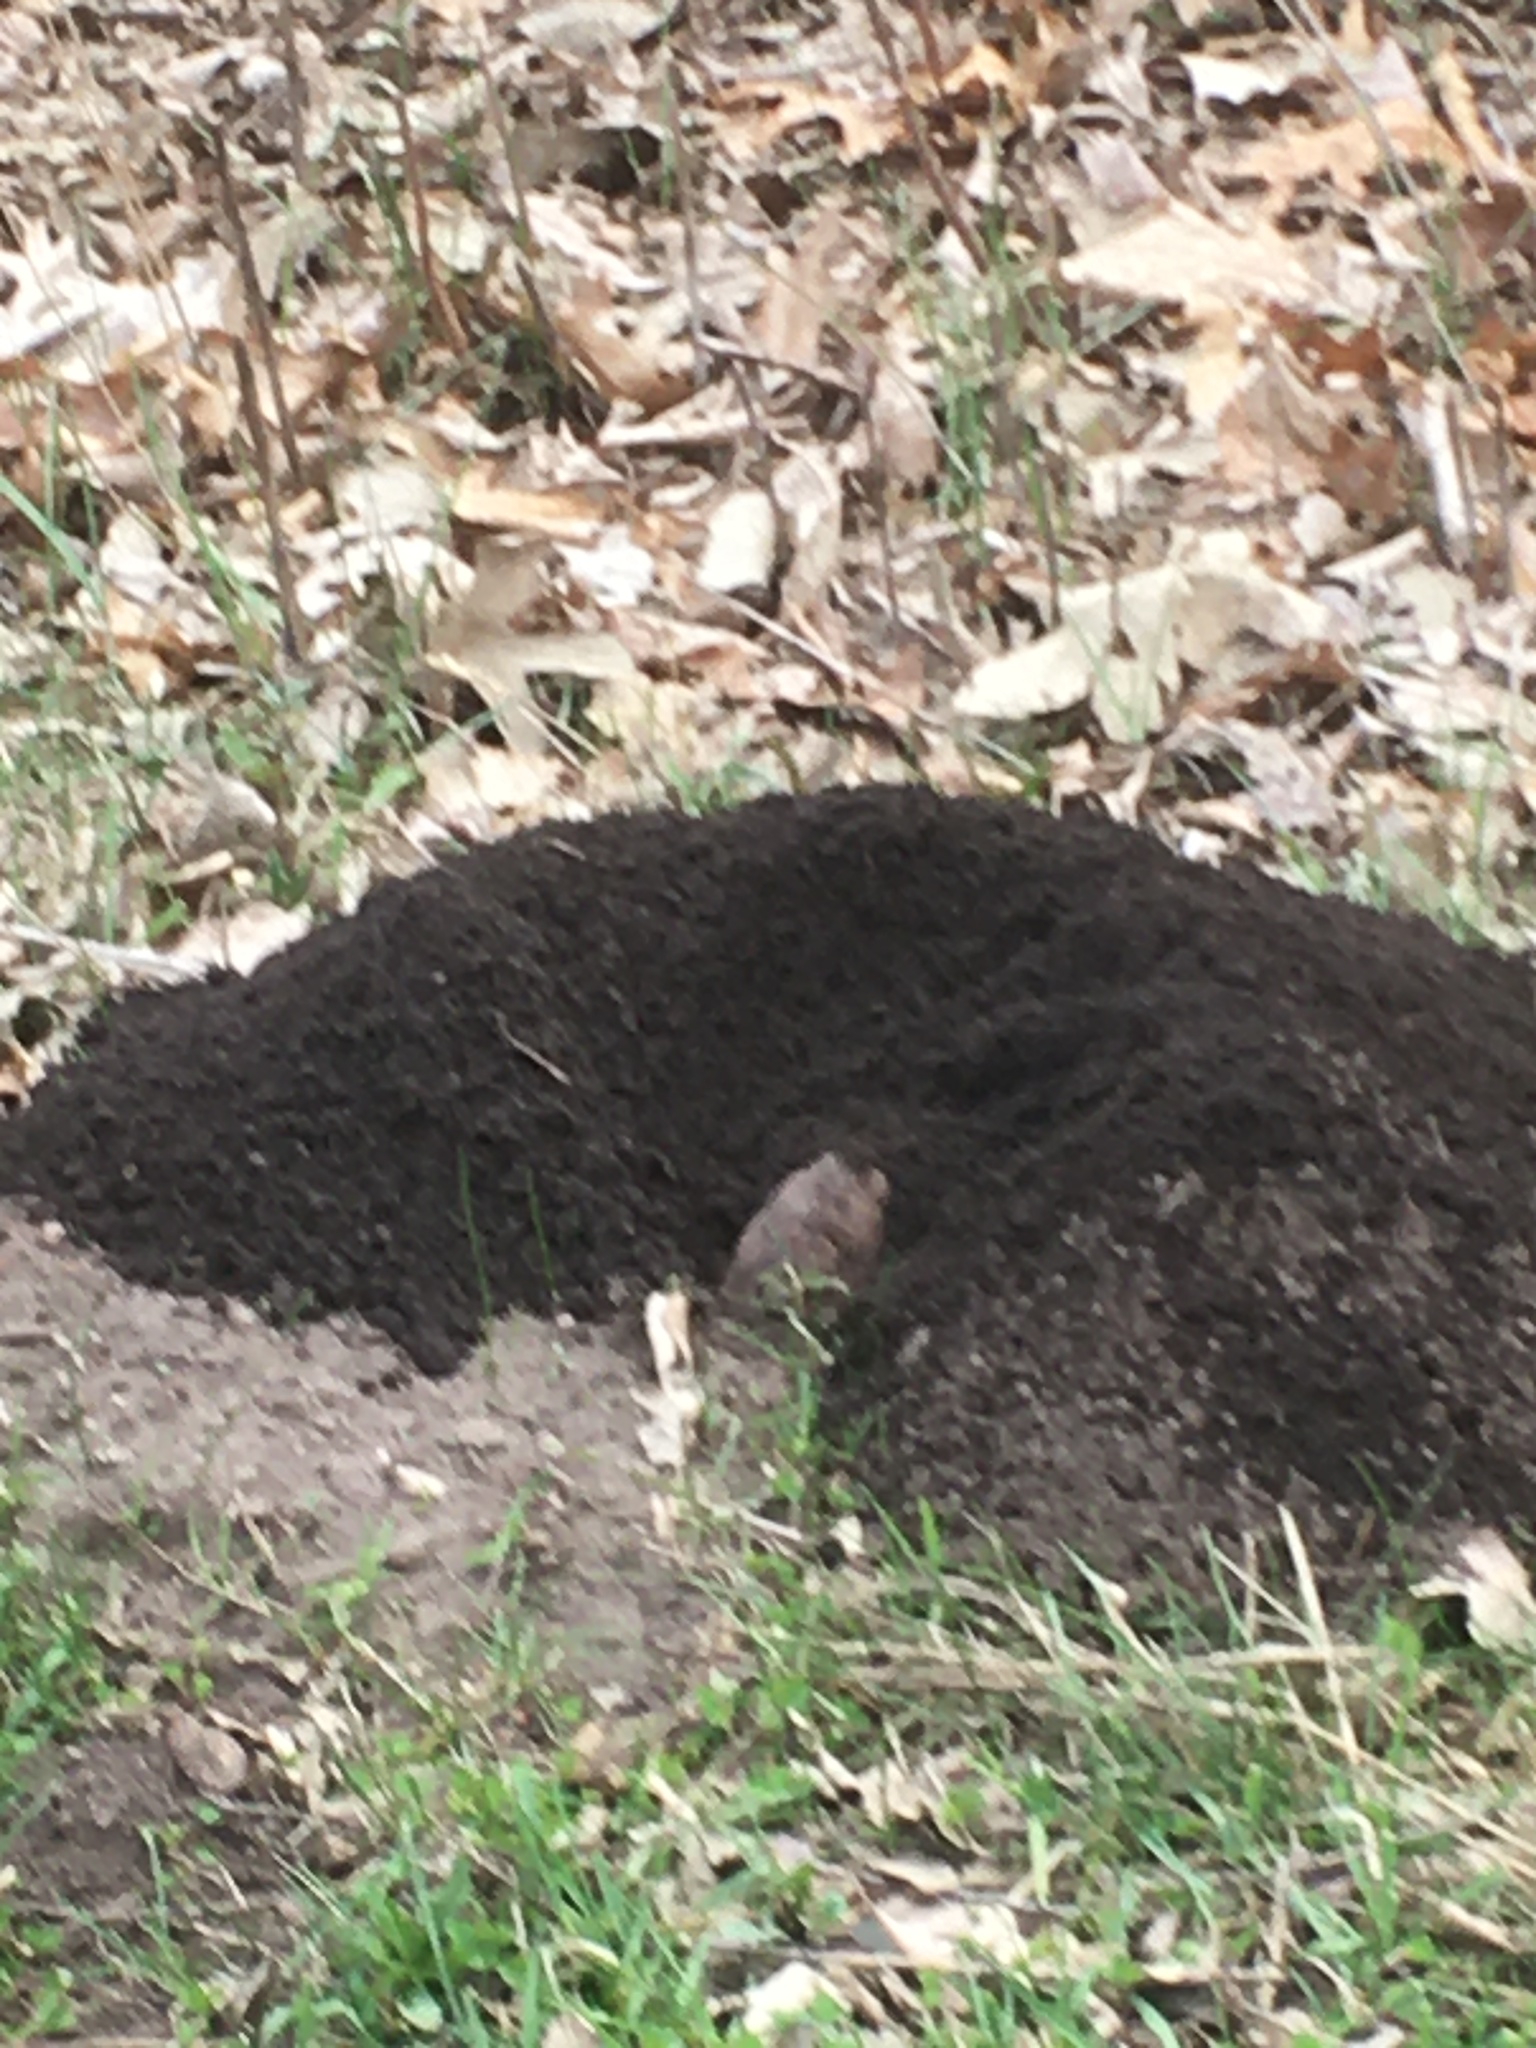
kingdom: Animalia
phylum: Chordata
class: Mammalia
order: Rodentia
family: Geomyidae
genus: Geomys
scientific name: Geomys bursarius
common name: Plains pocket gopher
